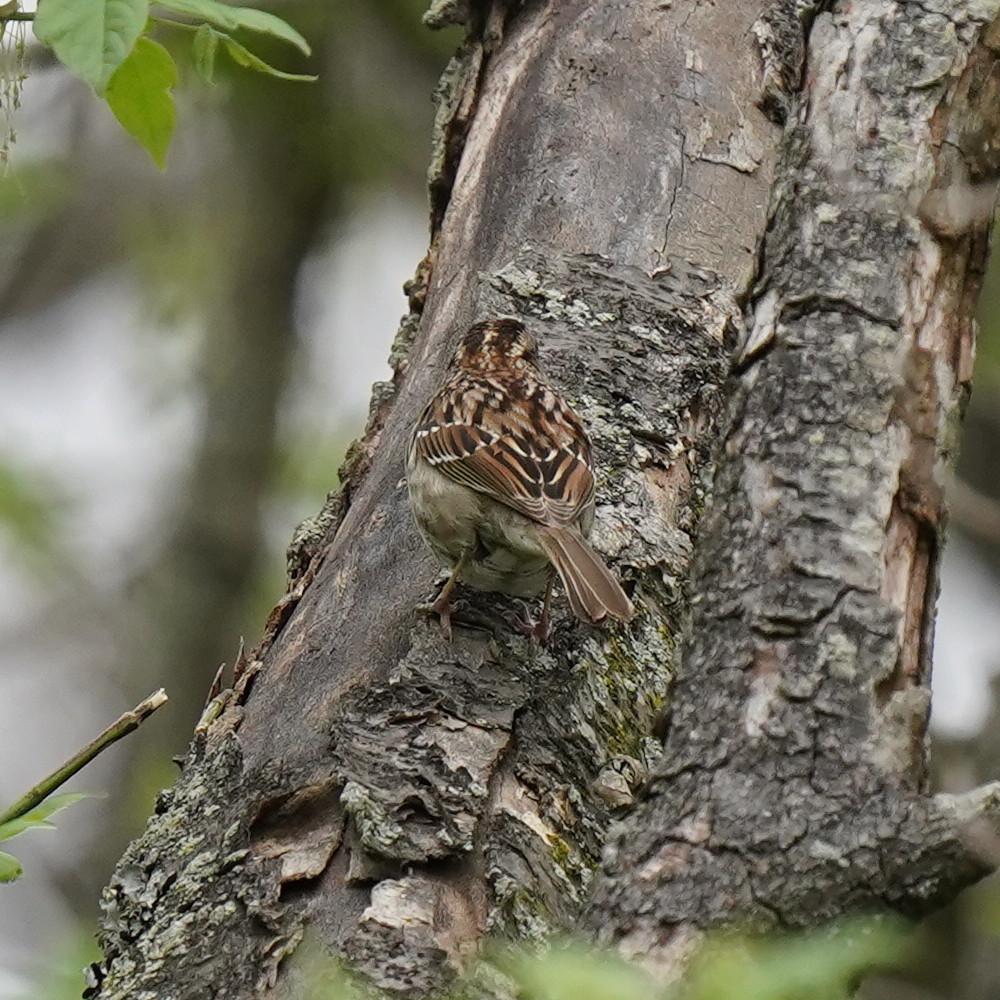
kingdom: Animalia
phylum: Chordata
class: Aves
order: Passeriformes
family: Passerellidae
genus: Zonotrichia
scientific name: Zonotrichia albicollis
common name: White-throated sparrow
